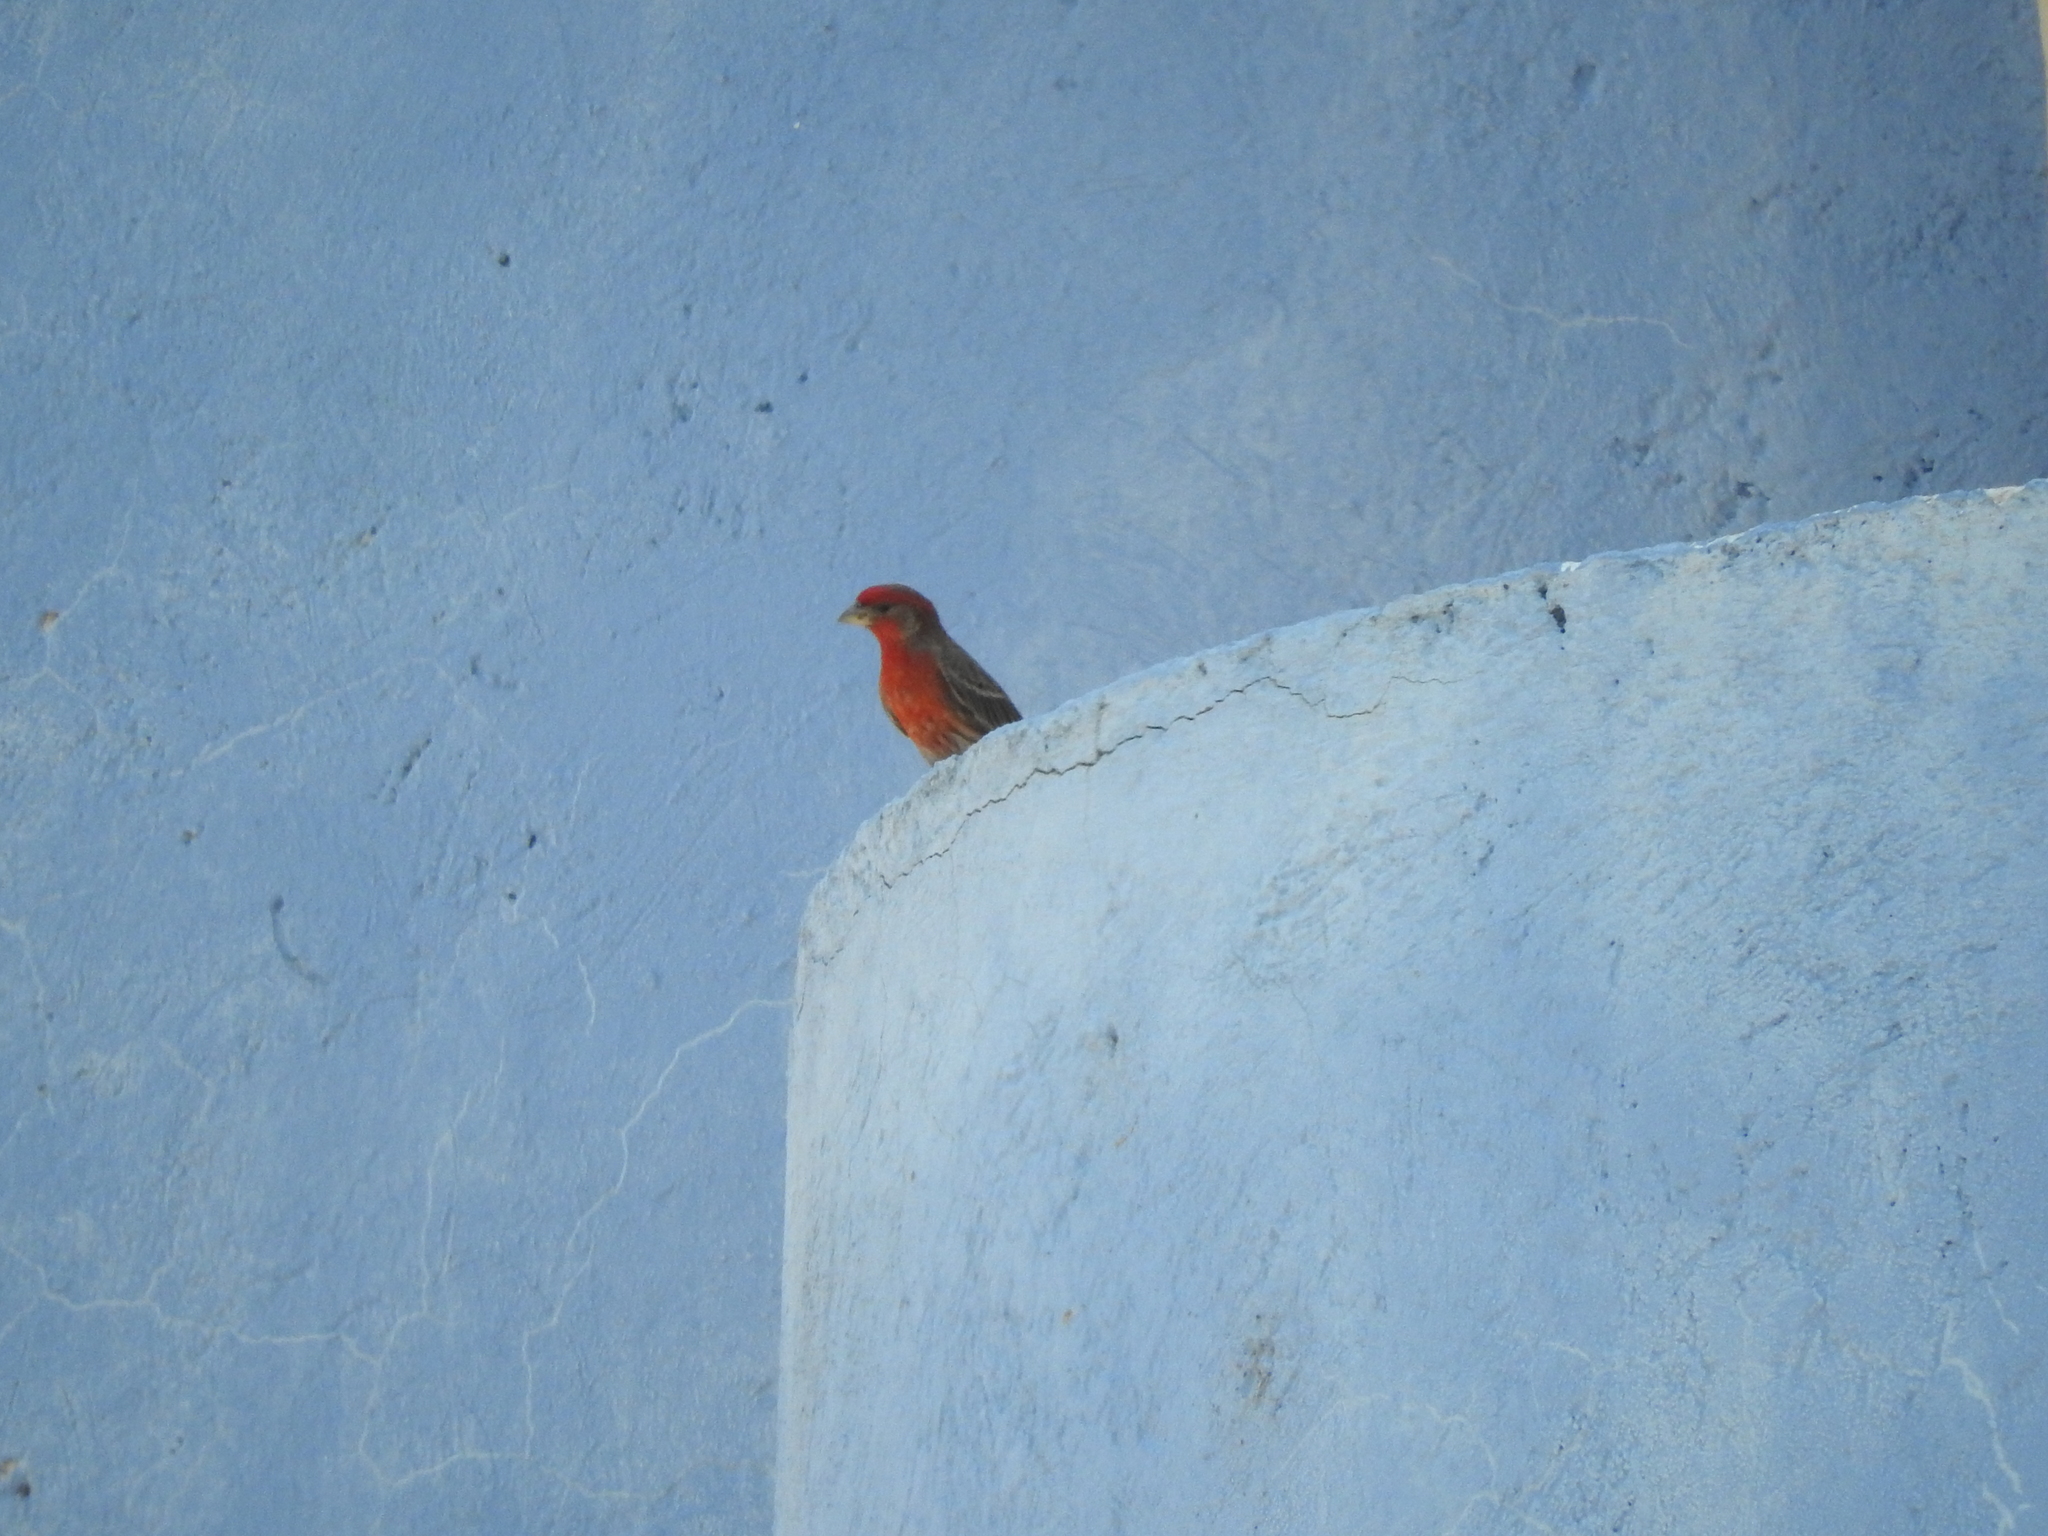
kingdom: Animalia
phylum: Chordata
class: Aves
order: Passeriformes
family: Fringillidae
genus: Haemorhous
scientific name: Haemorhous mexicanus
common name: House finch
